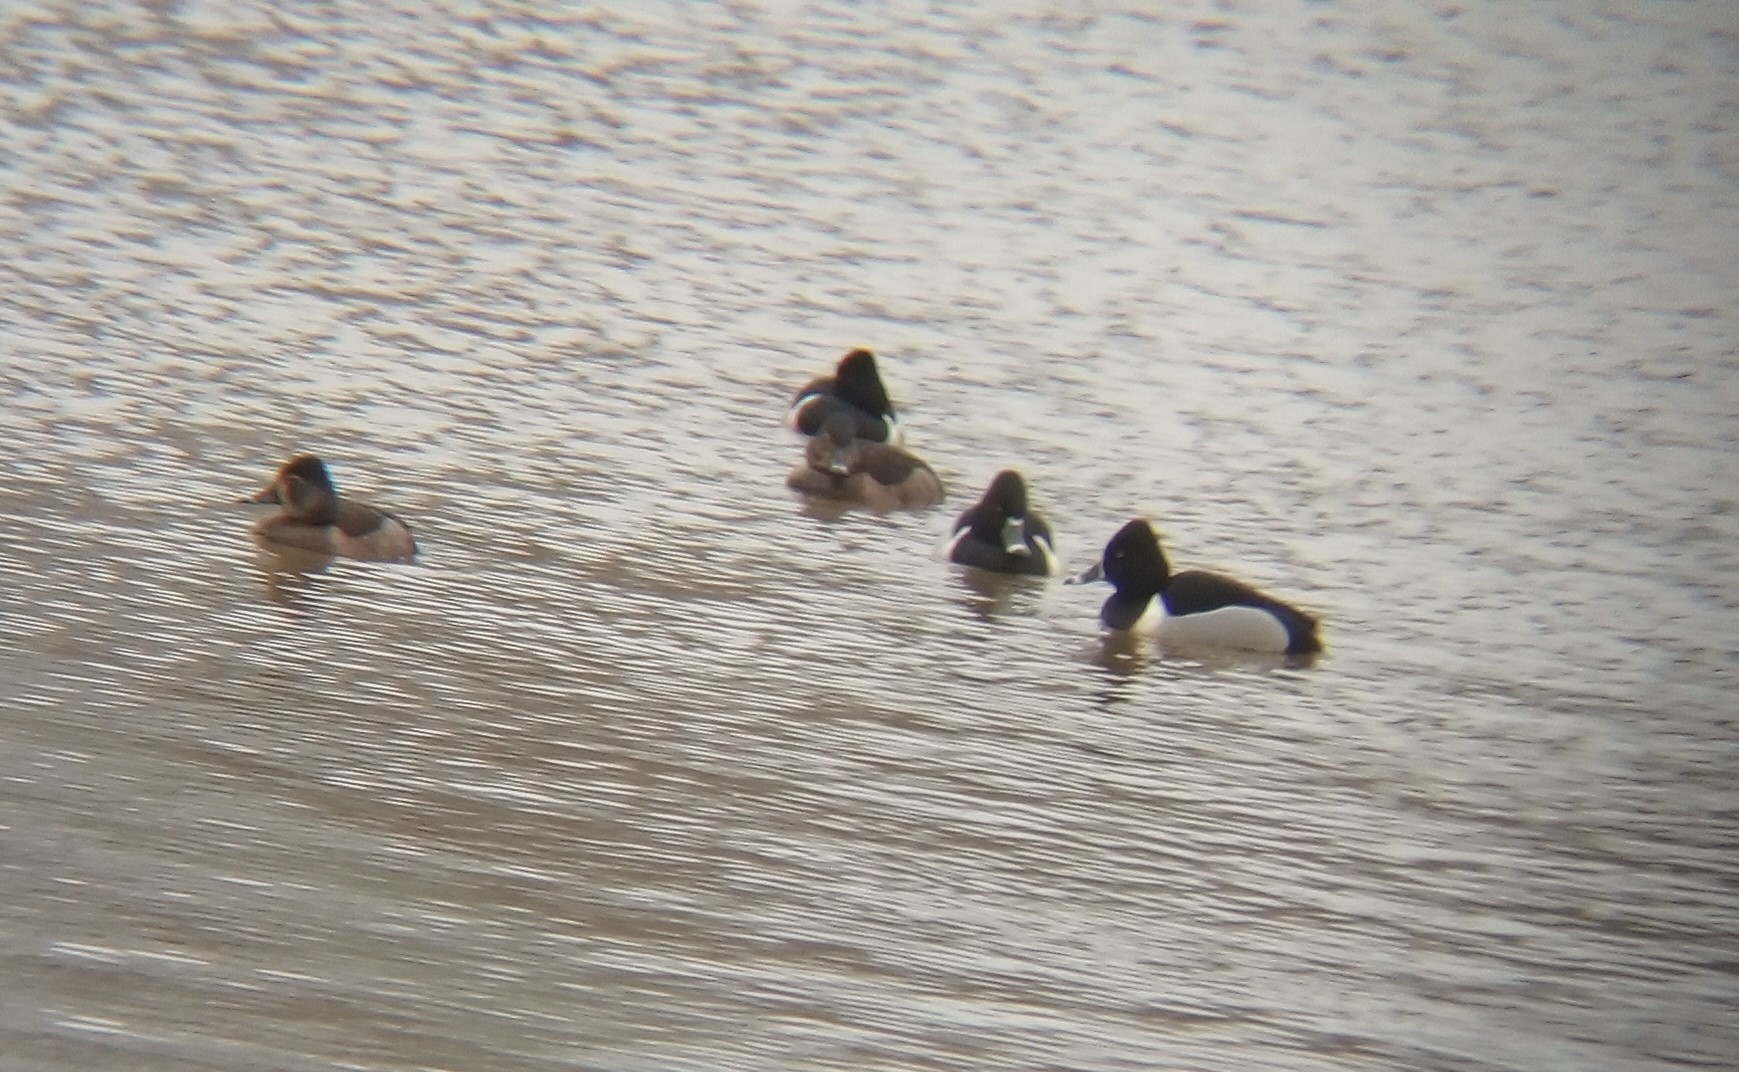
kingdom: Animalia
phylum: Chordata
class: Aves
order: Anseriformes
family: Anatidae
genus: Aythya
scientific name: Aythya collaris
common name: Ring-necked duck
